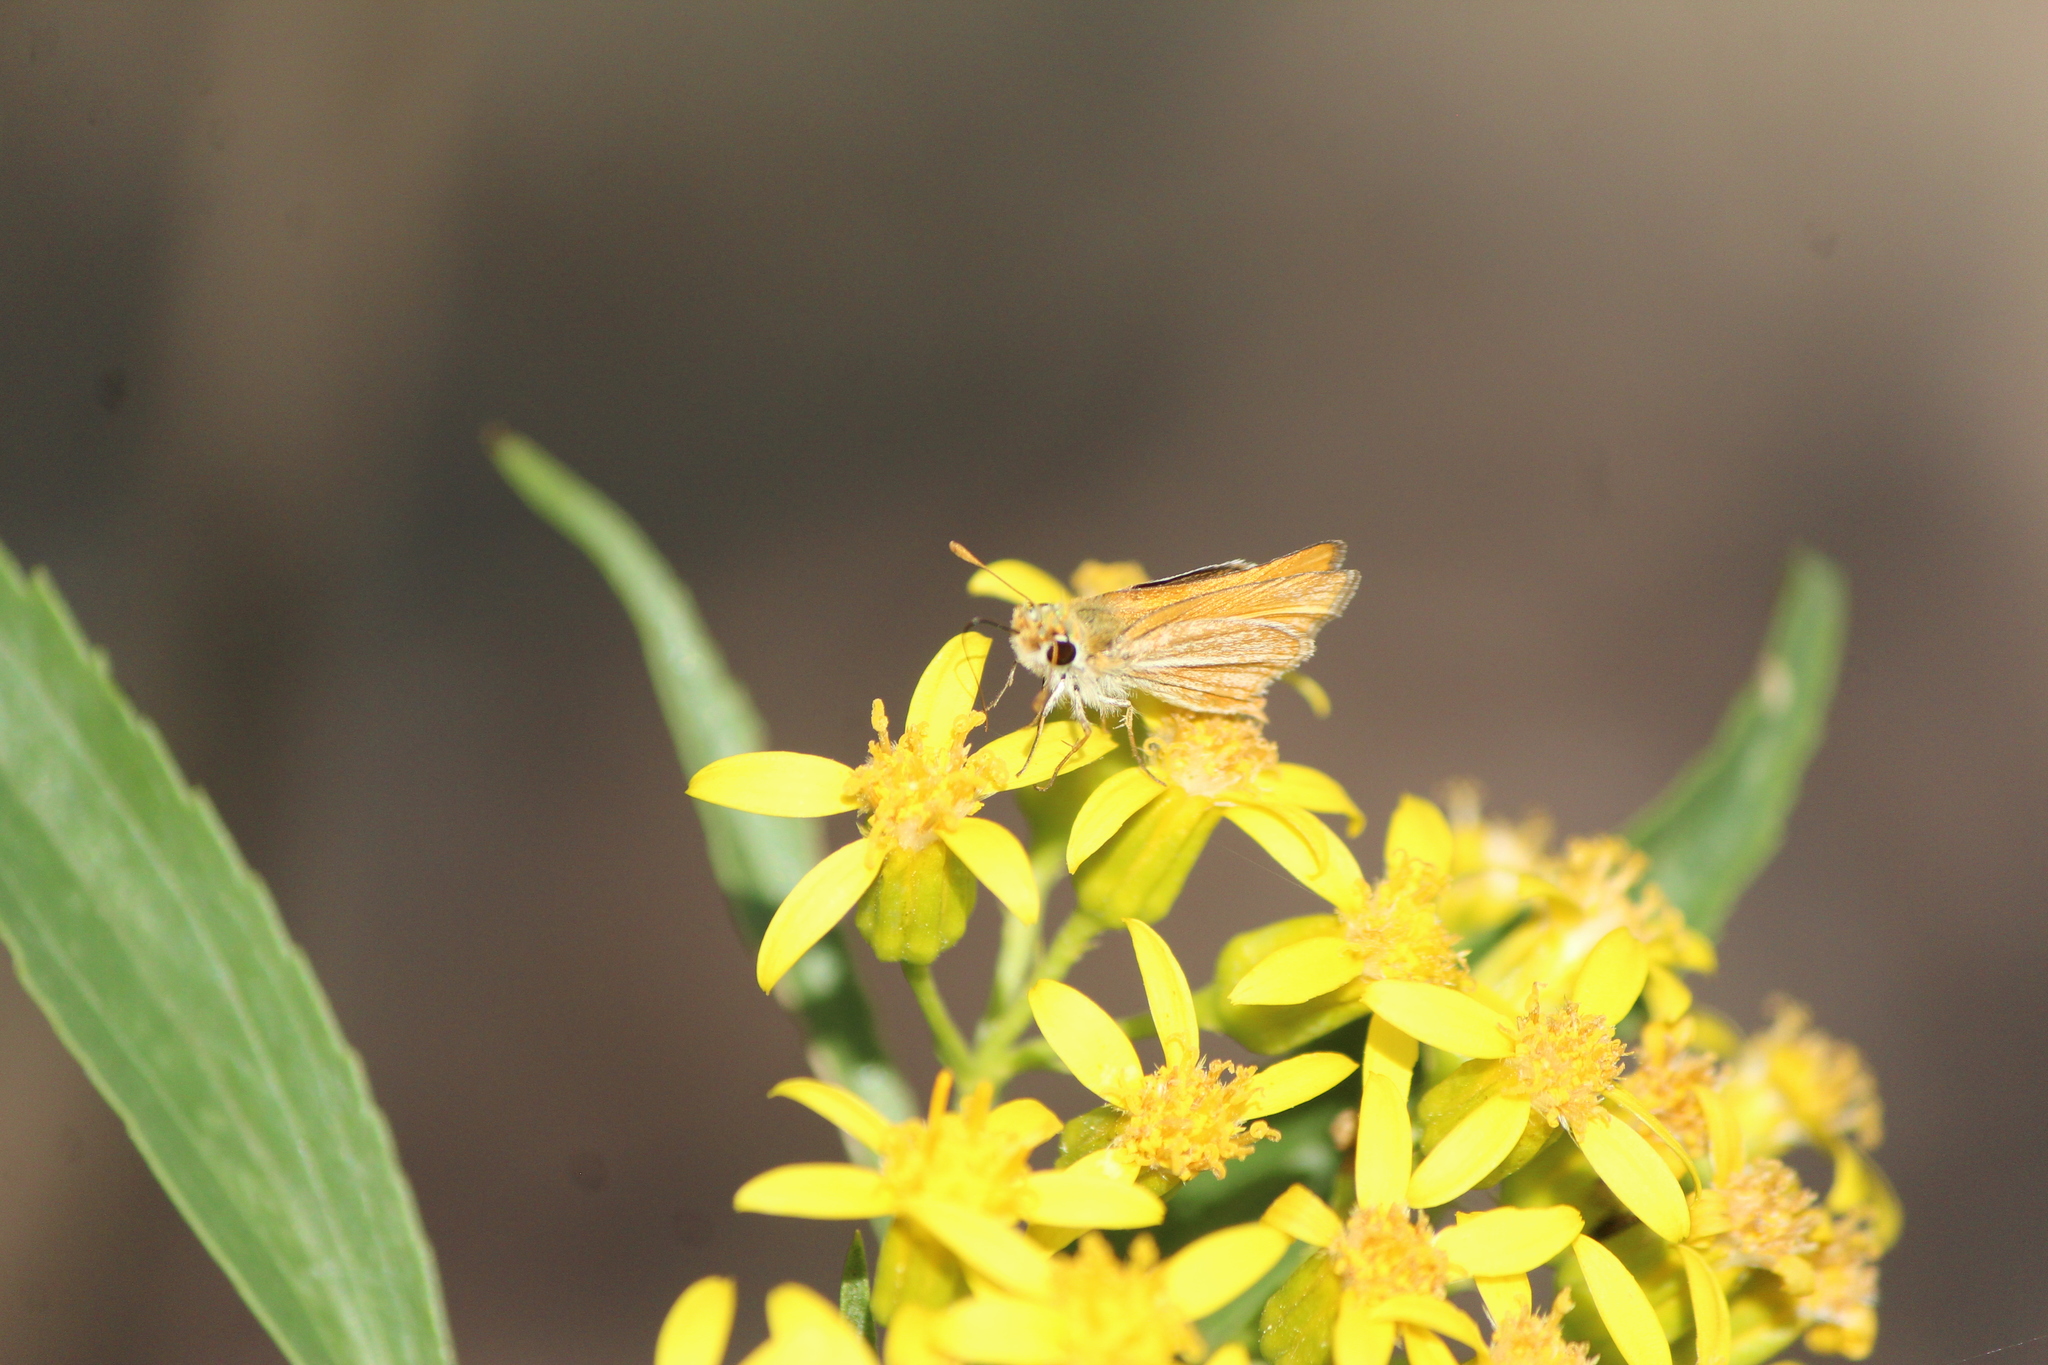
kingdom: Animalia
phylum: Arthropoda
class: Insecta
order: Lepidoptera
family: Hesperiidae
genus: Copaeodes
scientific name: Copaeodes minima
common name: Southern skipperling
